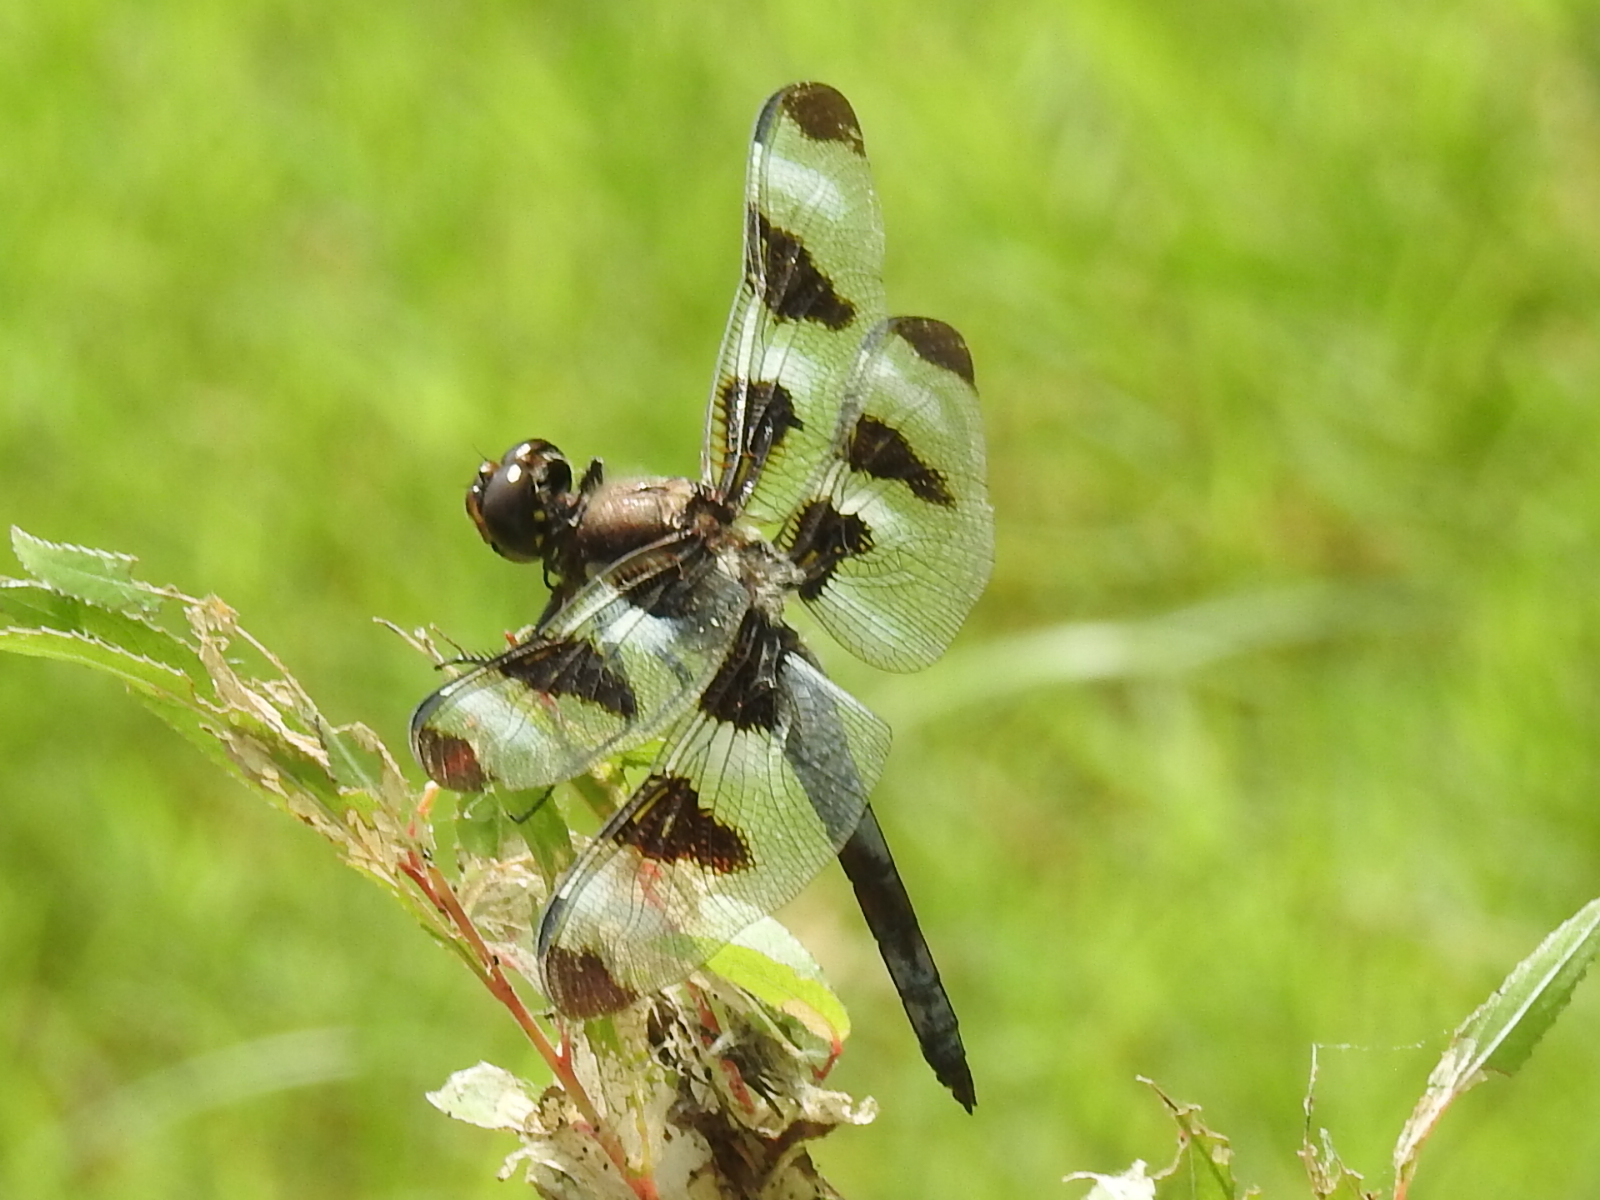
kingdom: Animalia
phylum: Arthropoda
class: Insecta
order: Odonata
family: Libellulidae
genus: Libellula
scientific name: Libellula pulchella
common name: Twelve-spotted skimmer
